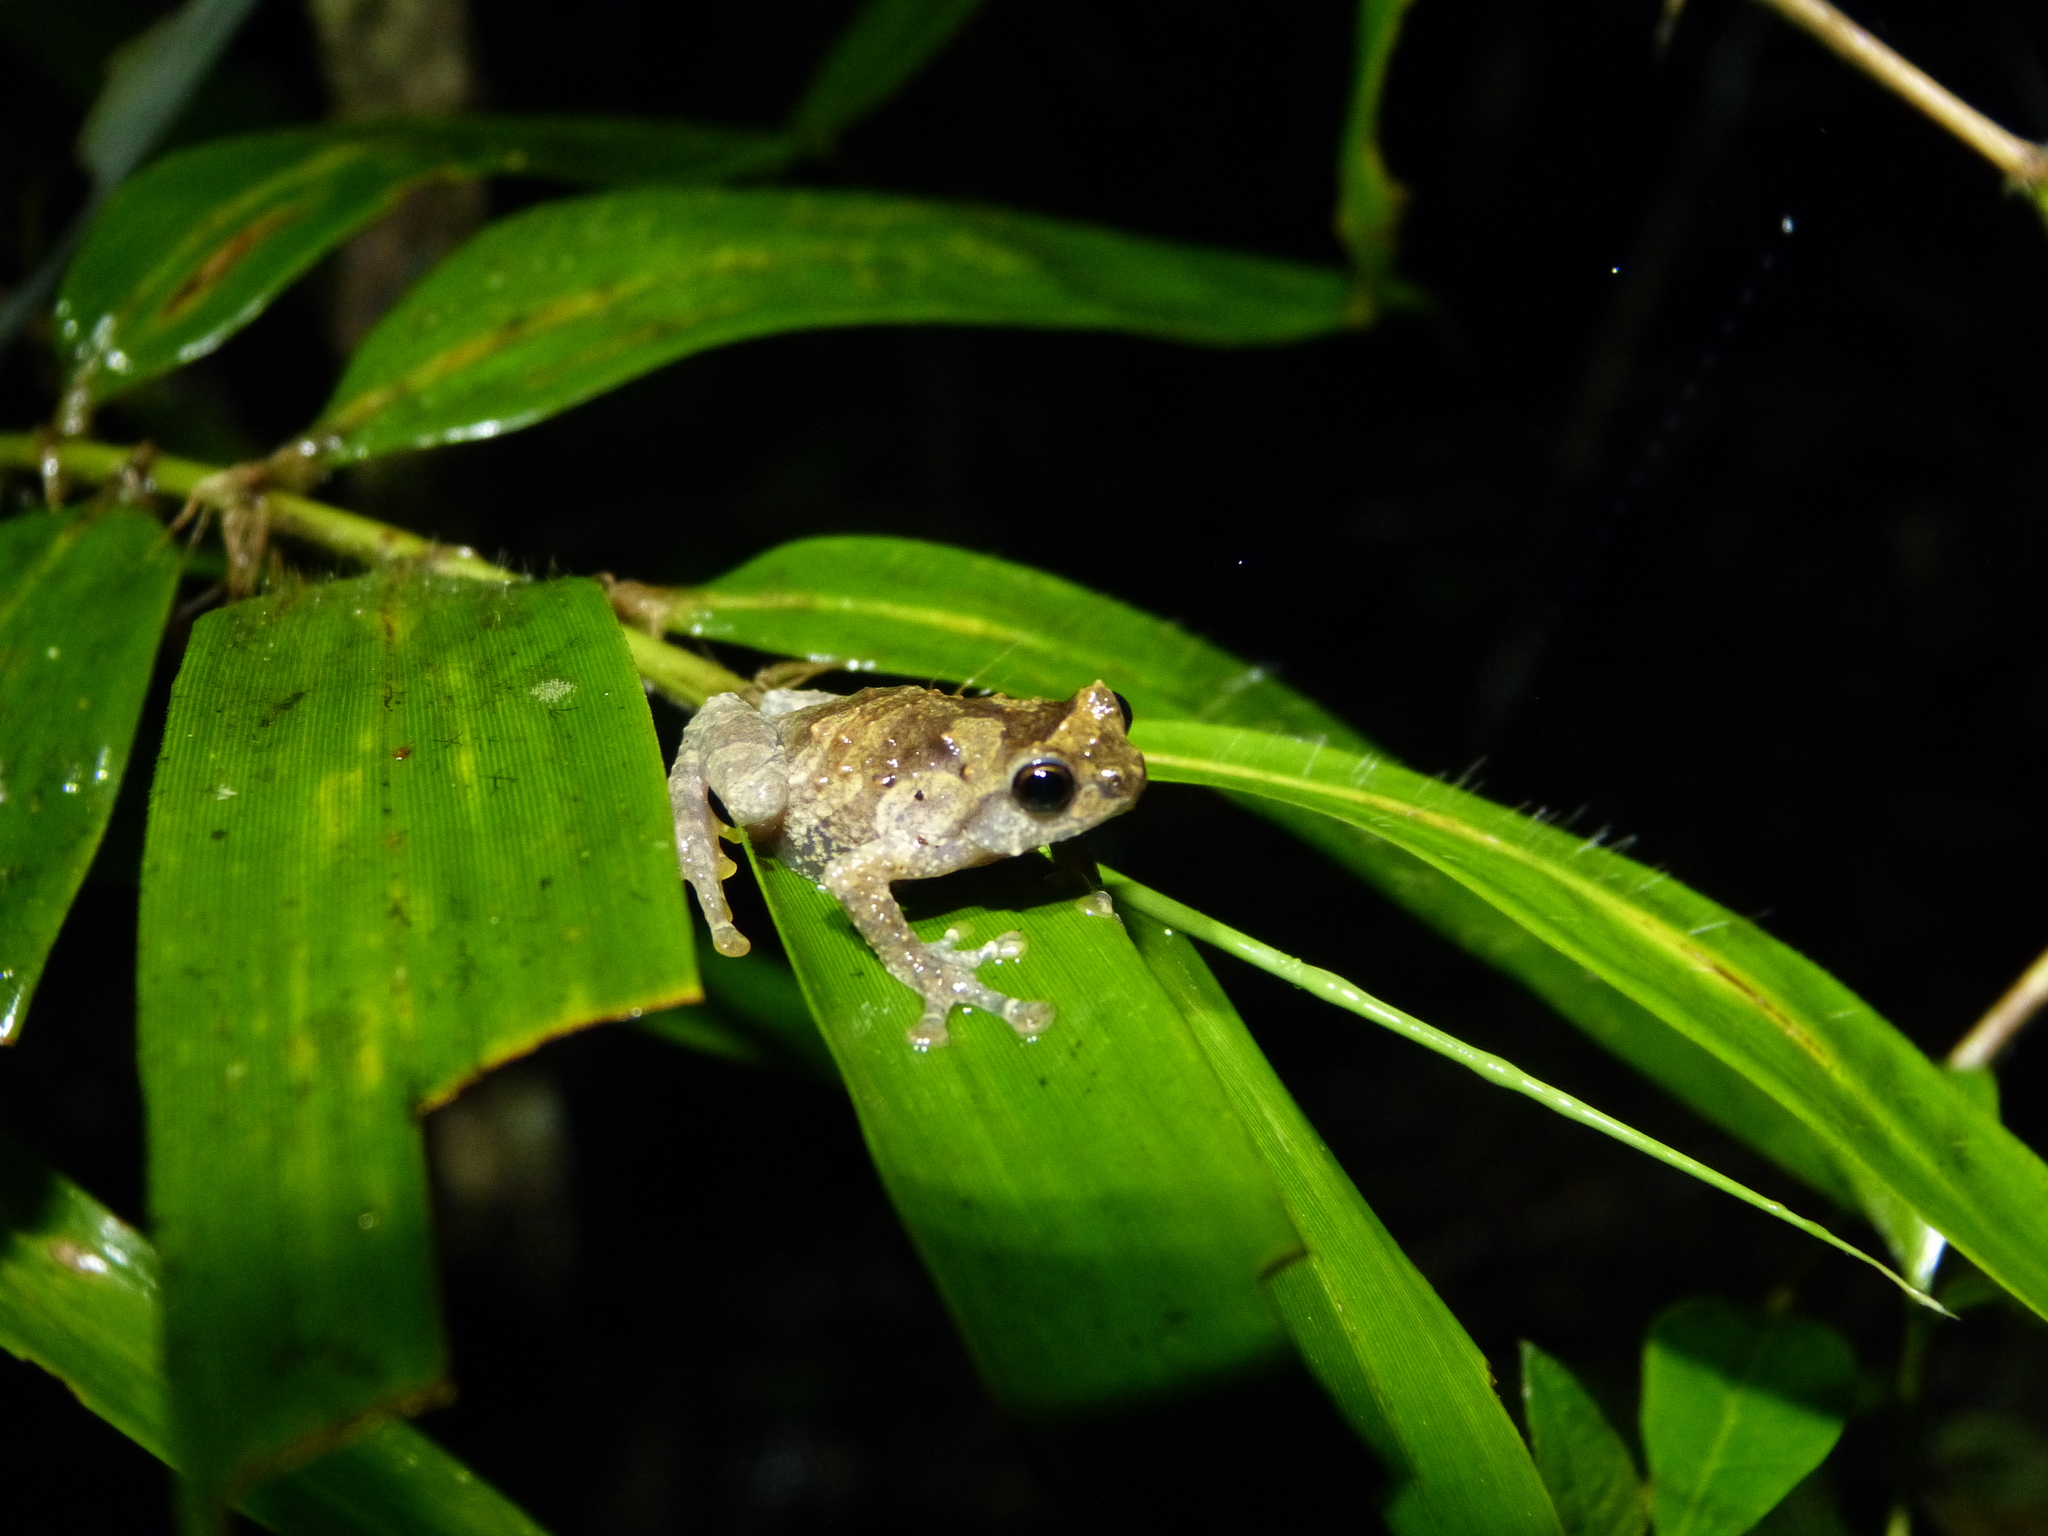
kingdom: Animalia
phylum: Chordata
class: Amphibia
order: Anura
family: Microhylidae
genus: Anodonthyla
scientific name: Anodonthyla boulengerii
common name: Boulenger's climbing frog
